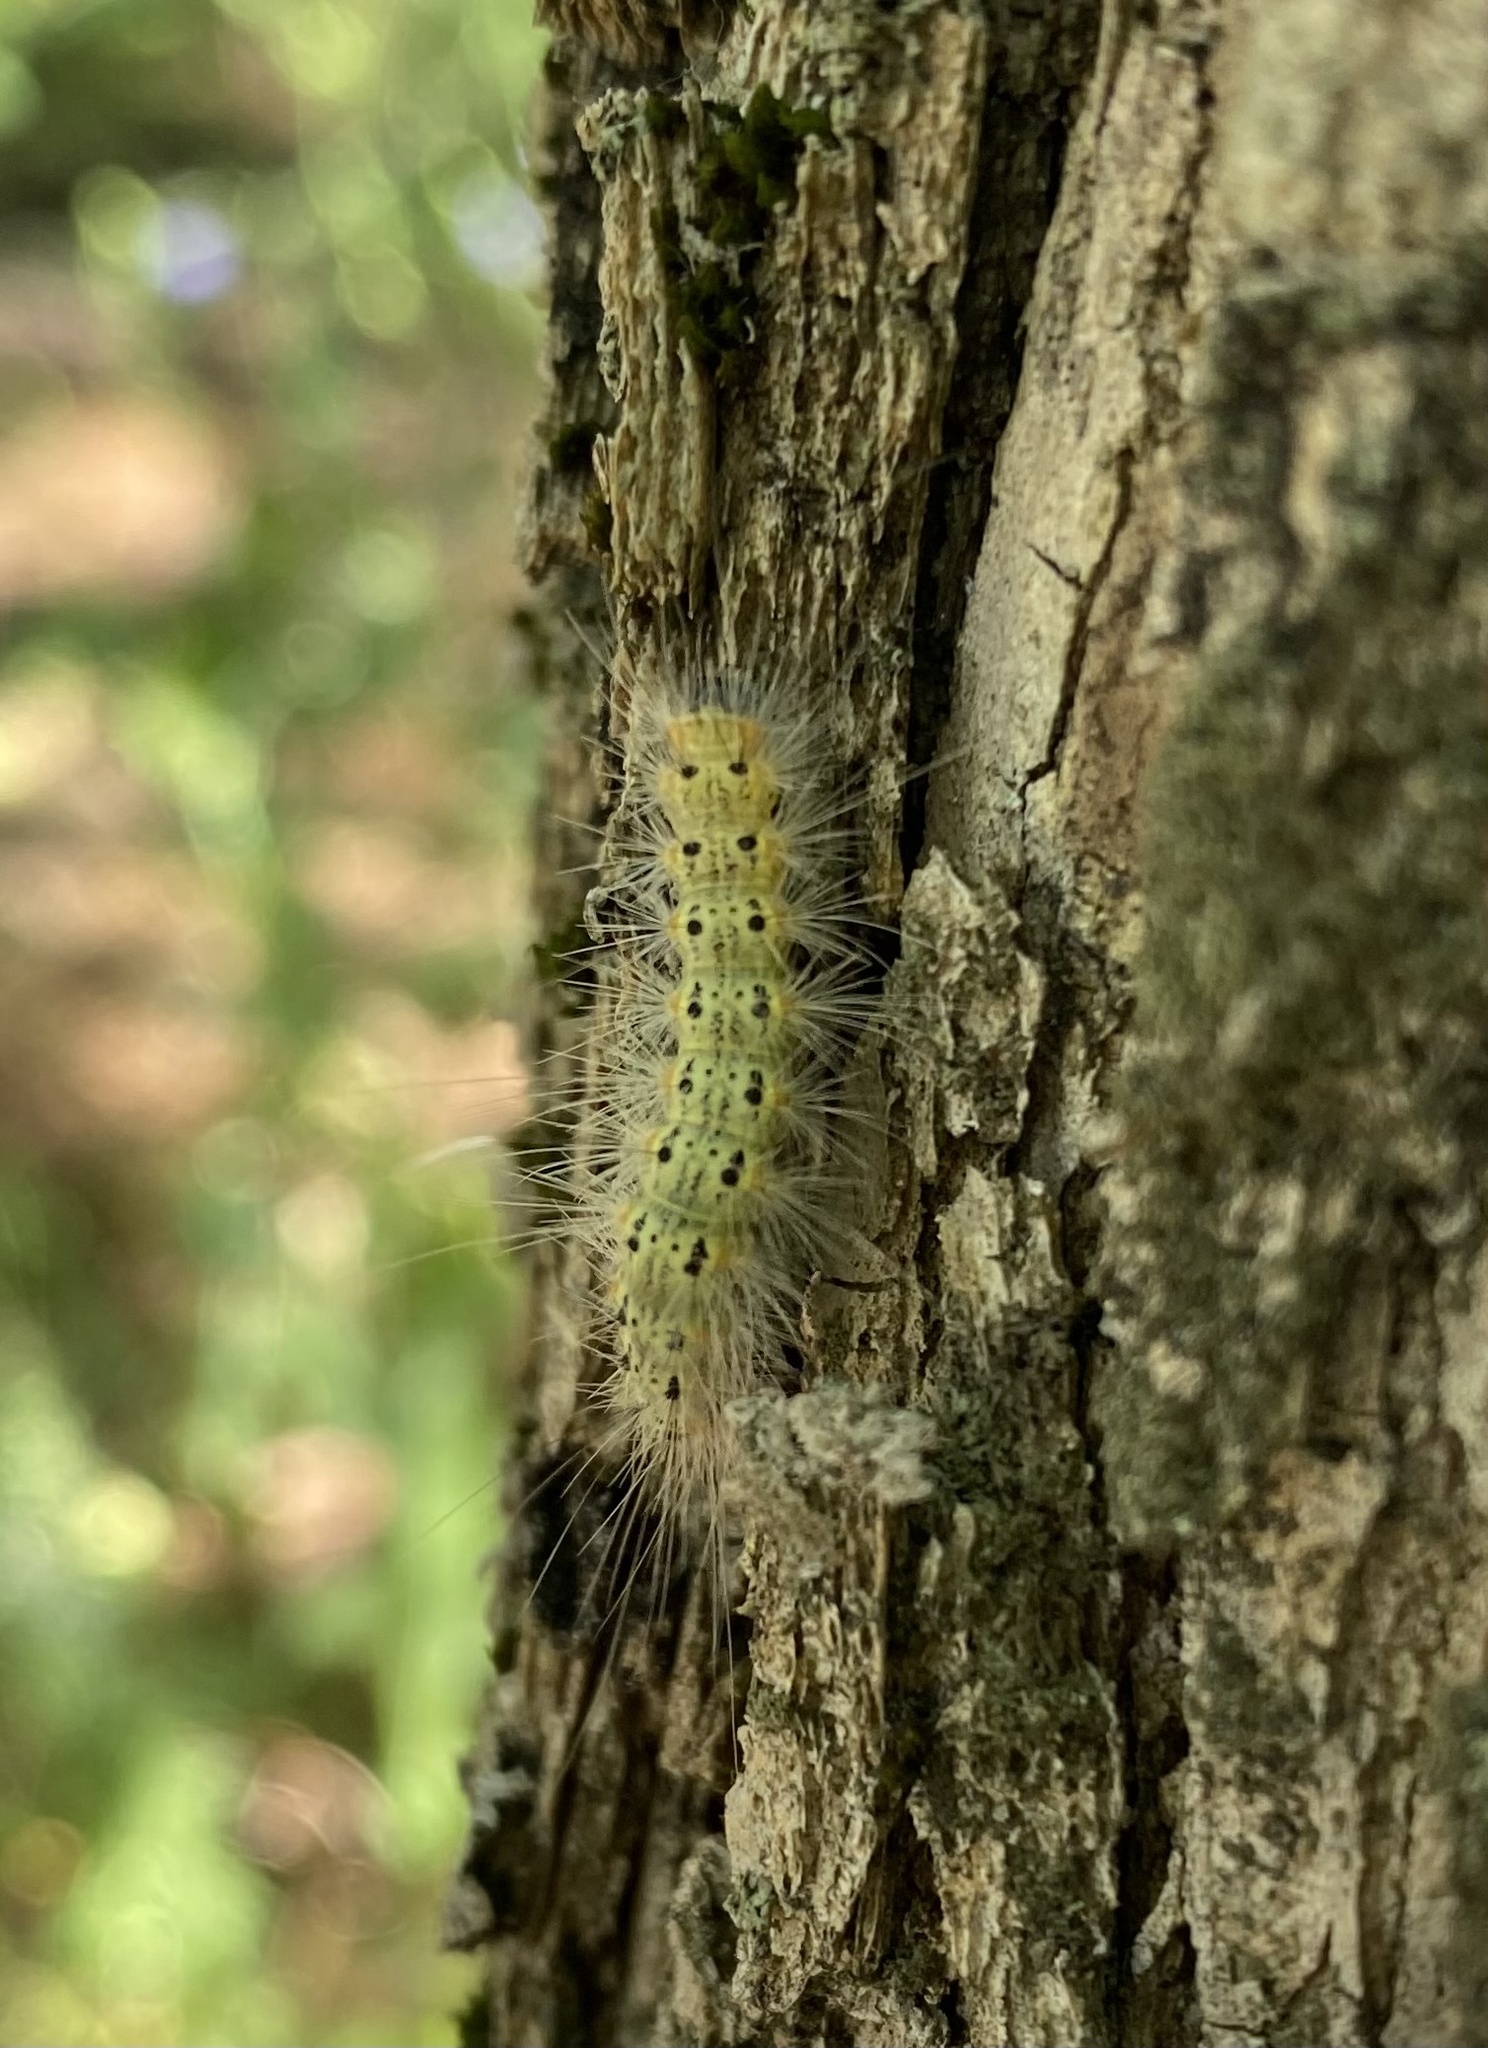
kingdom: Animalia
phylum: Arthropoda
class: Insecta
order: Lepidoptera
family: Erebidae
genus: Hyphantria
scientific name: Hyphantria cunea
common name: American white moth
